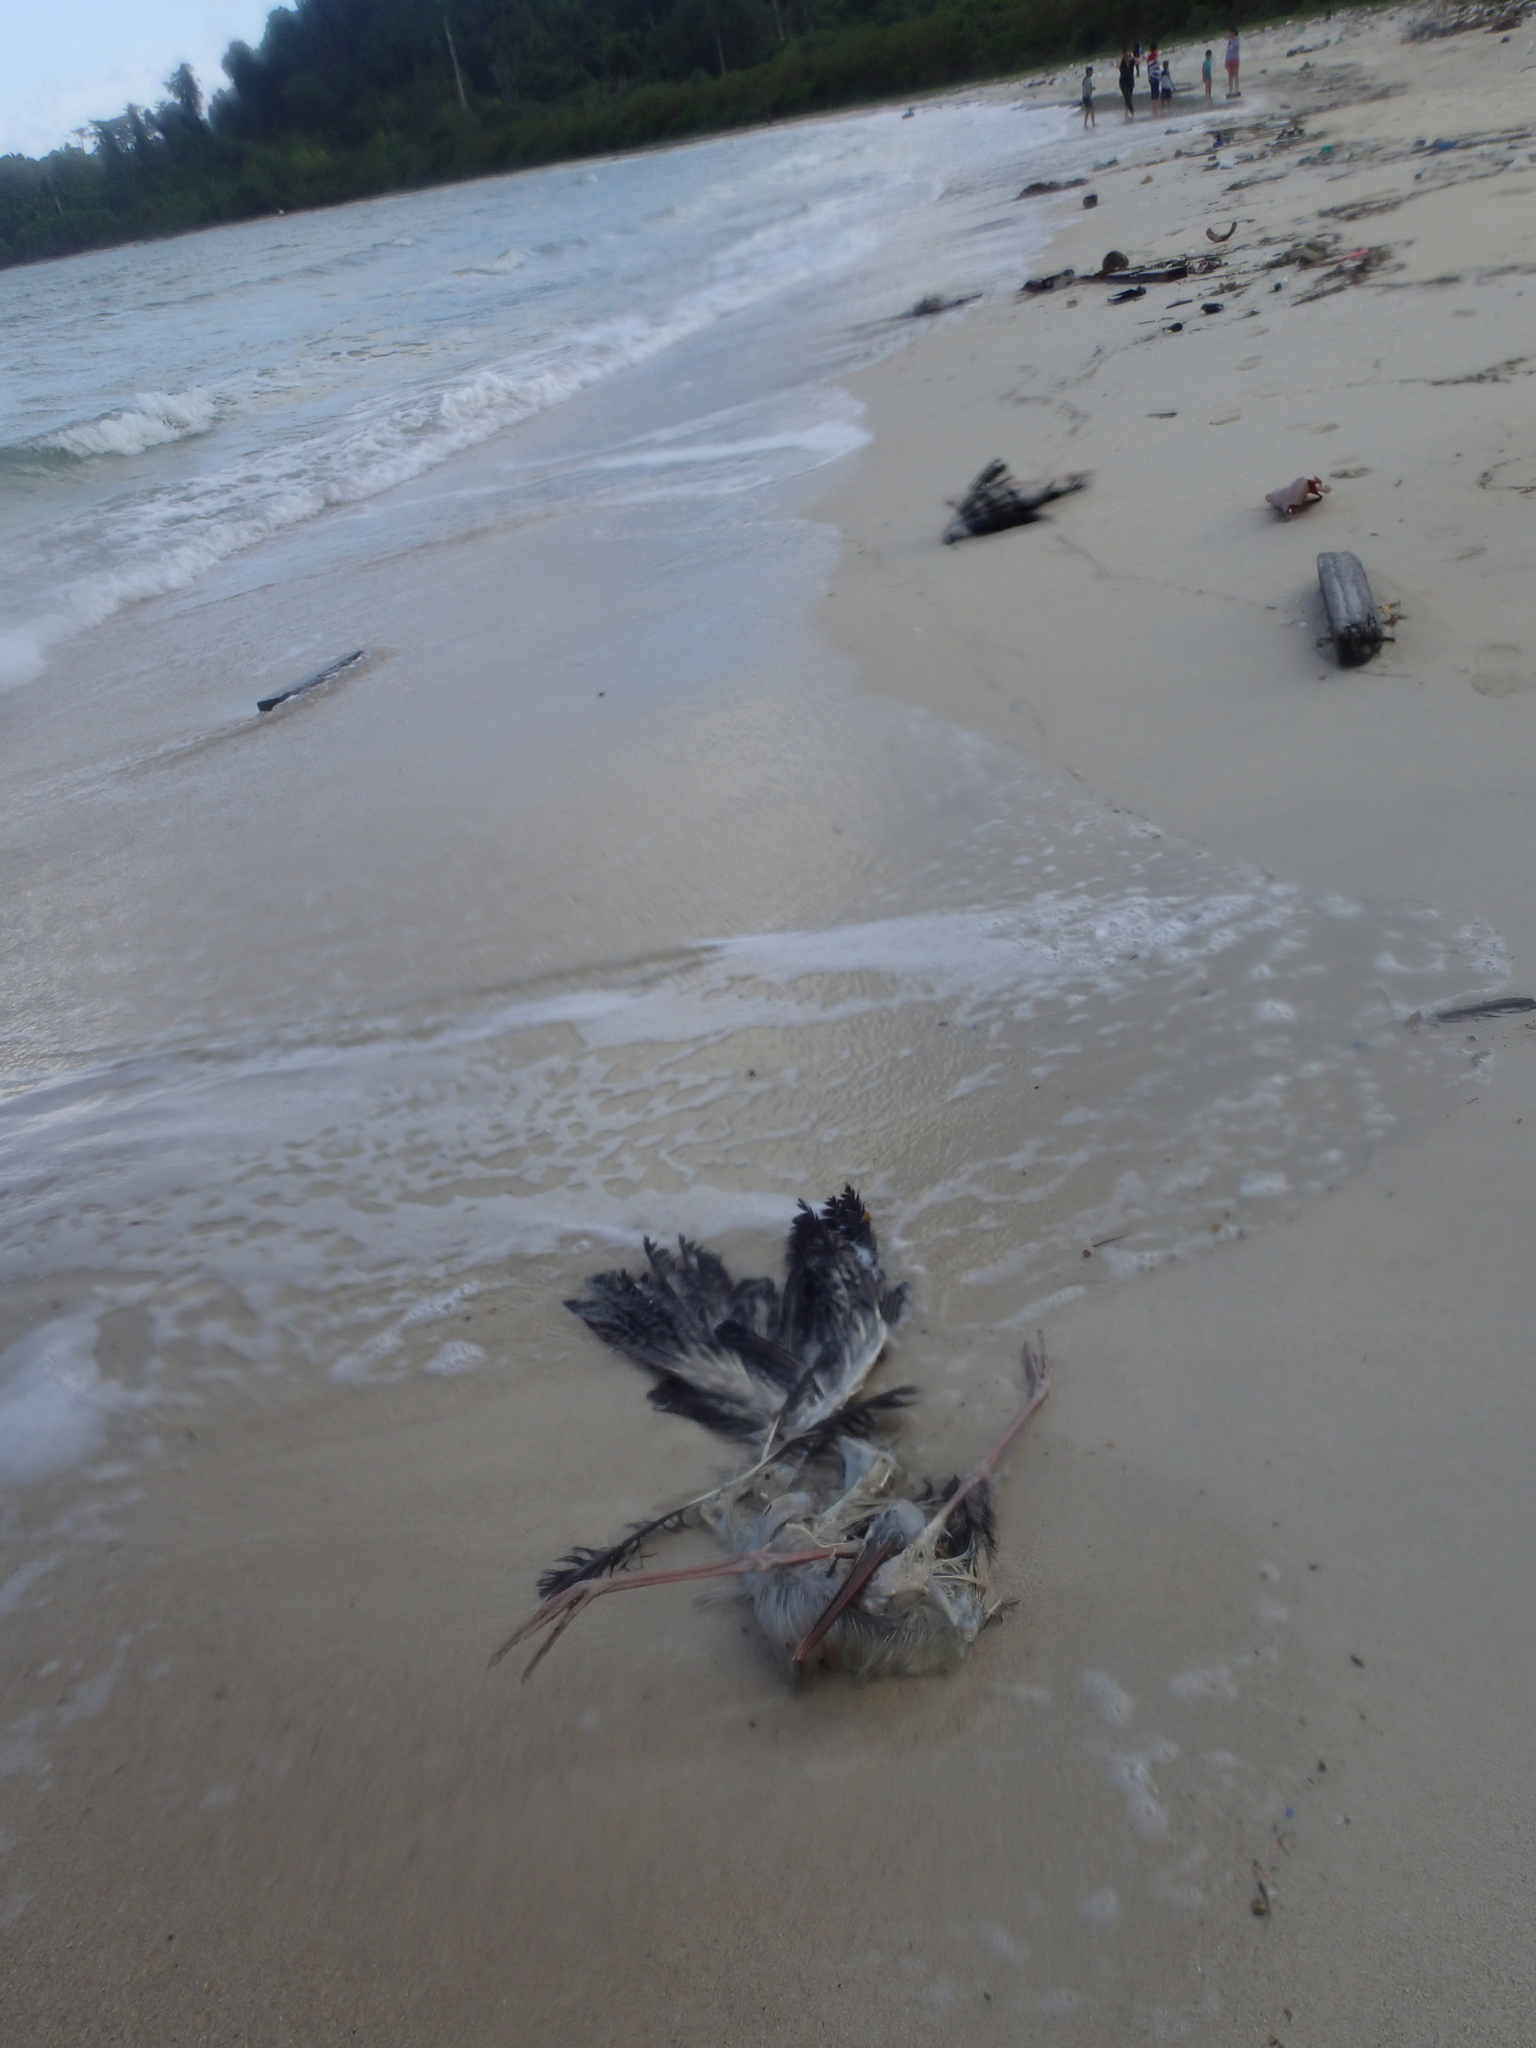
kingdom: Animalia
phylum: Chordata
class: Aves
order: Ciconiiformes
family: Ciconiidae
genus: Anastomus
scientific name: Anastomus oscitans
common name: Asian openbill
